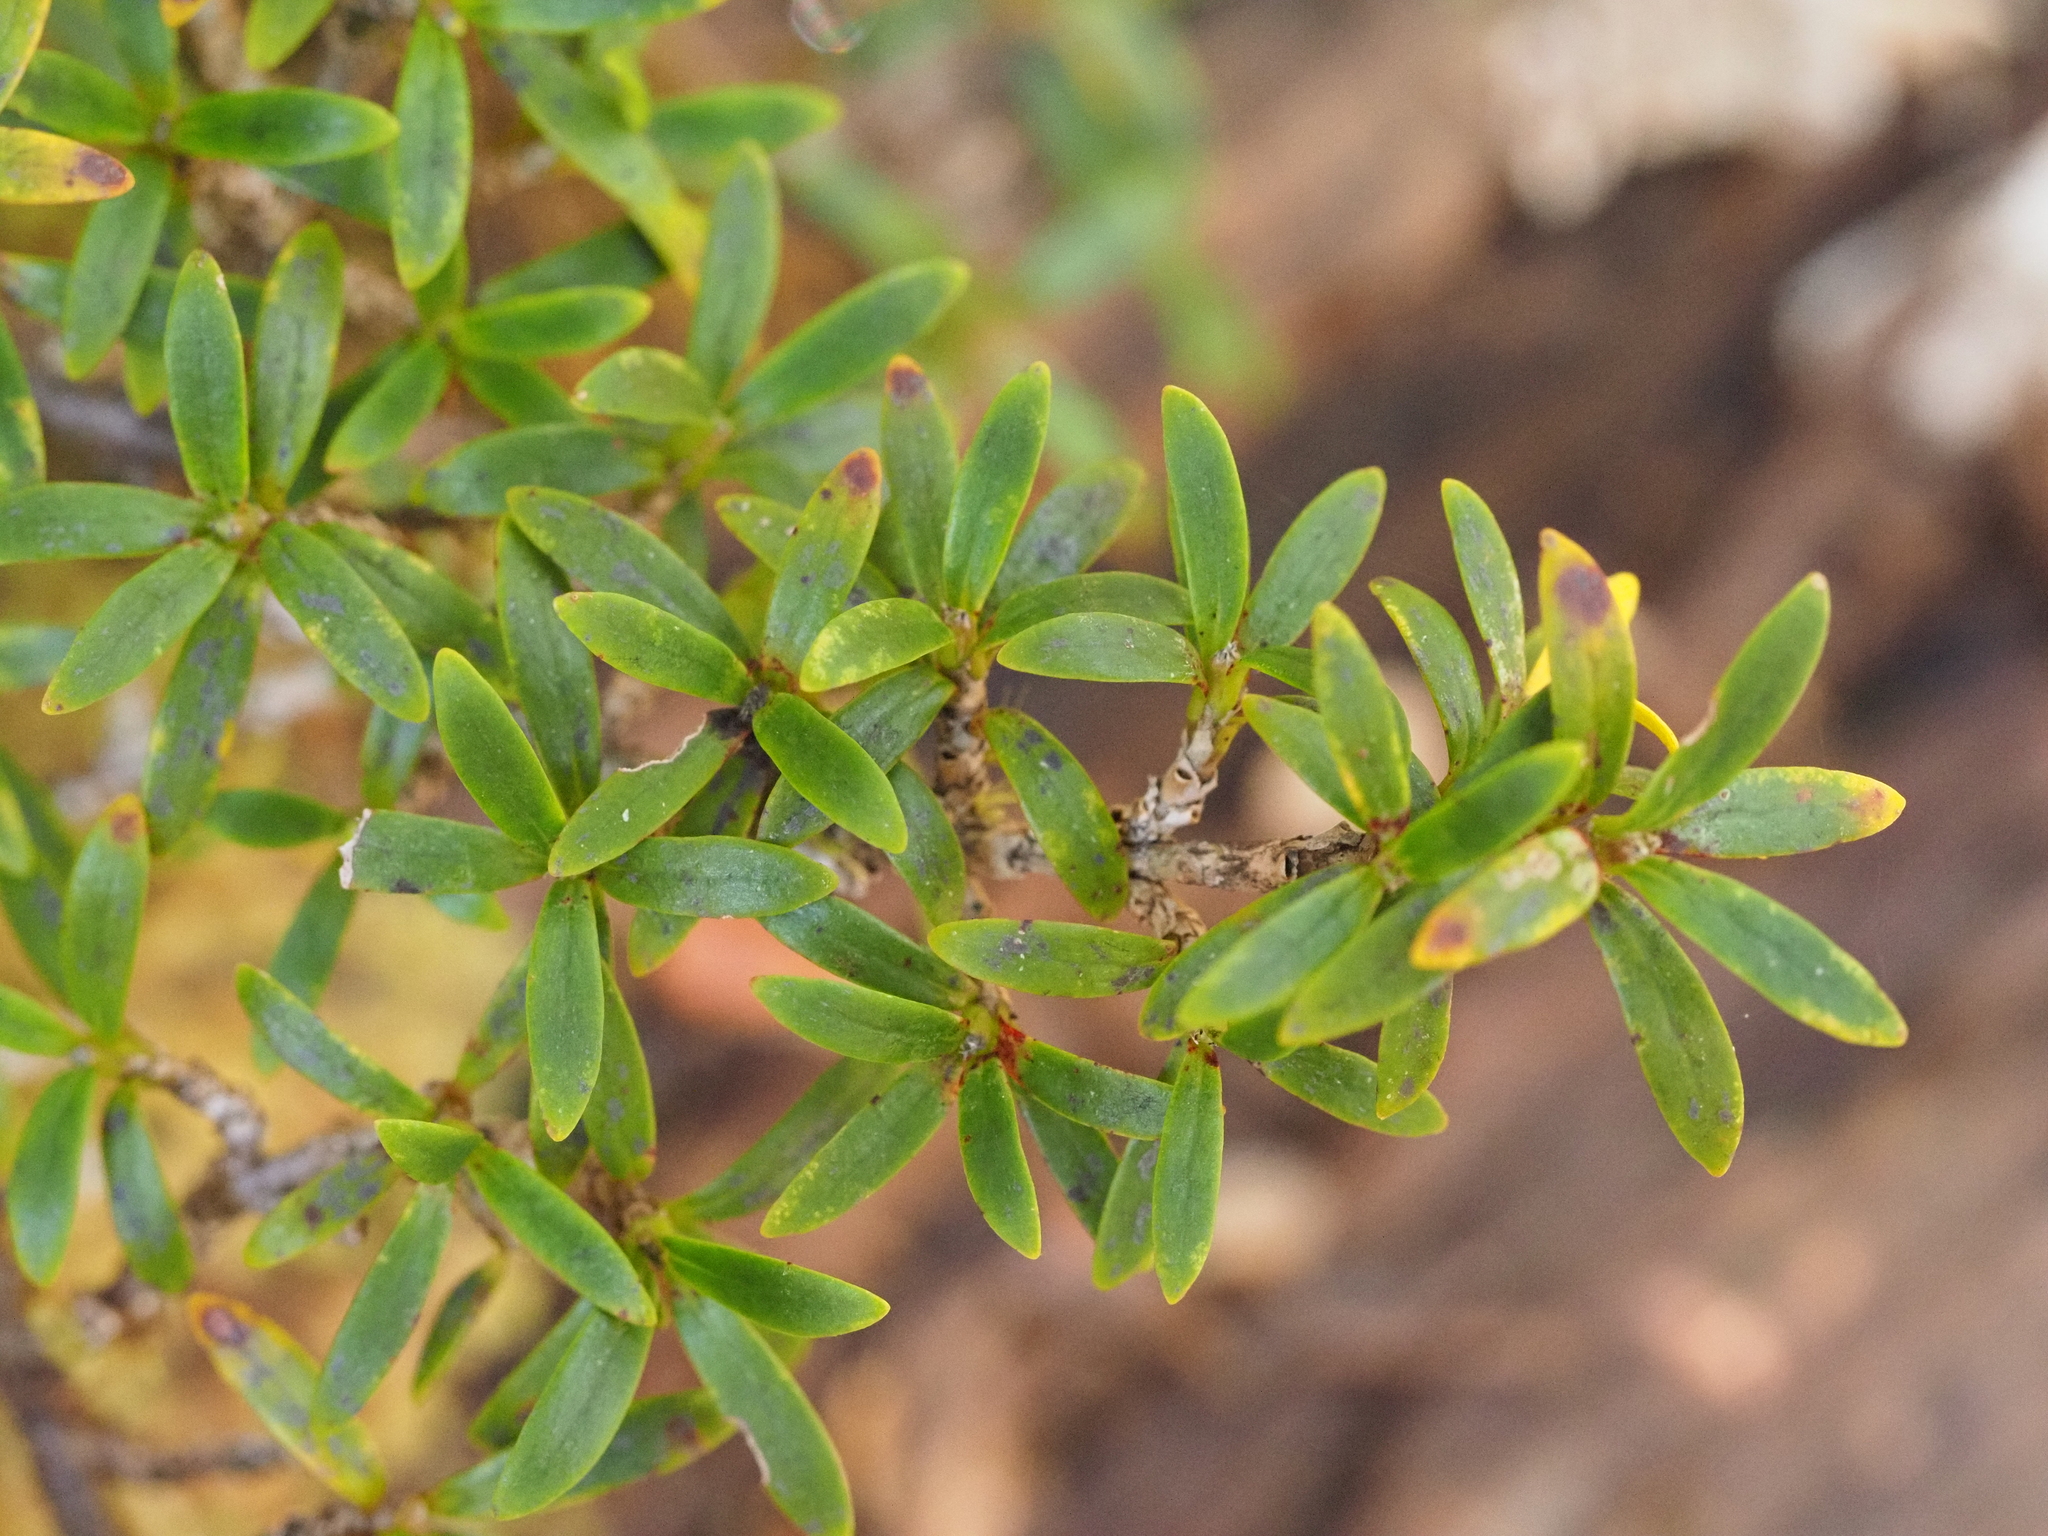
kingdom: Plantae
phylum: Tracheophyta
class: Magnoliopsida
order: Gentianales
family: Rubiaceae
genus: Coprosma
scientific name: Coprosma pseudocuneata
